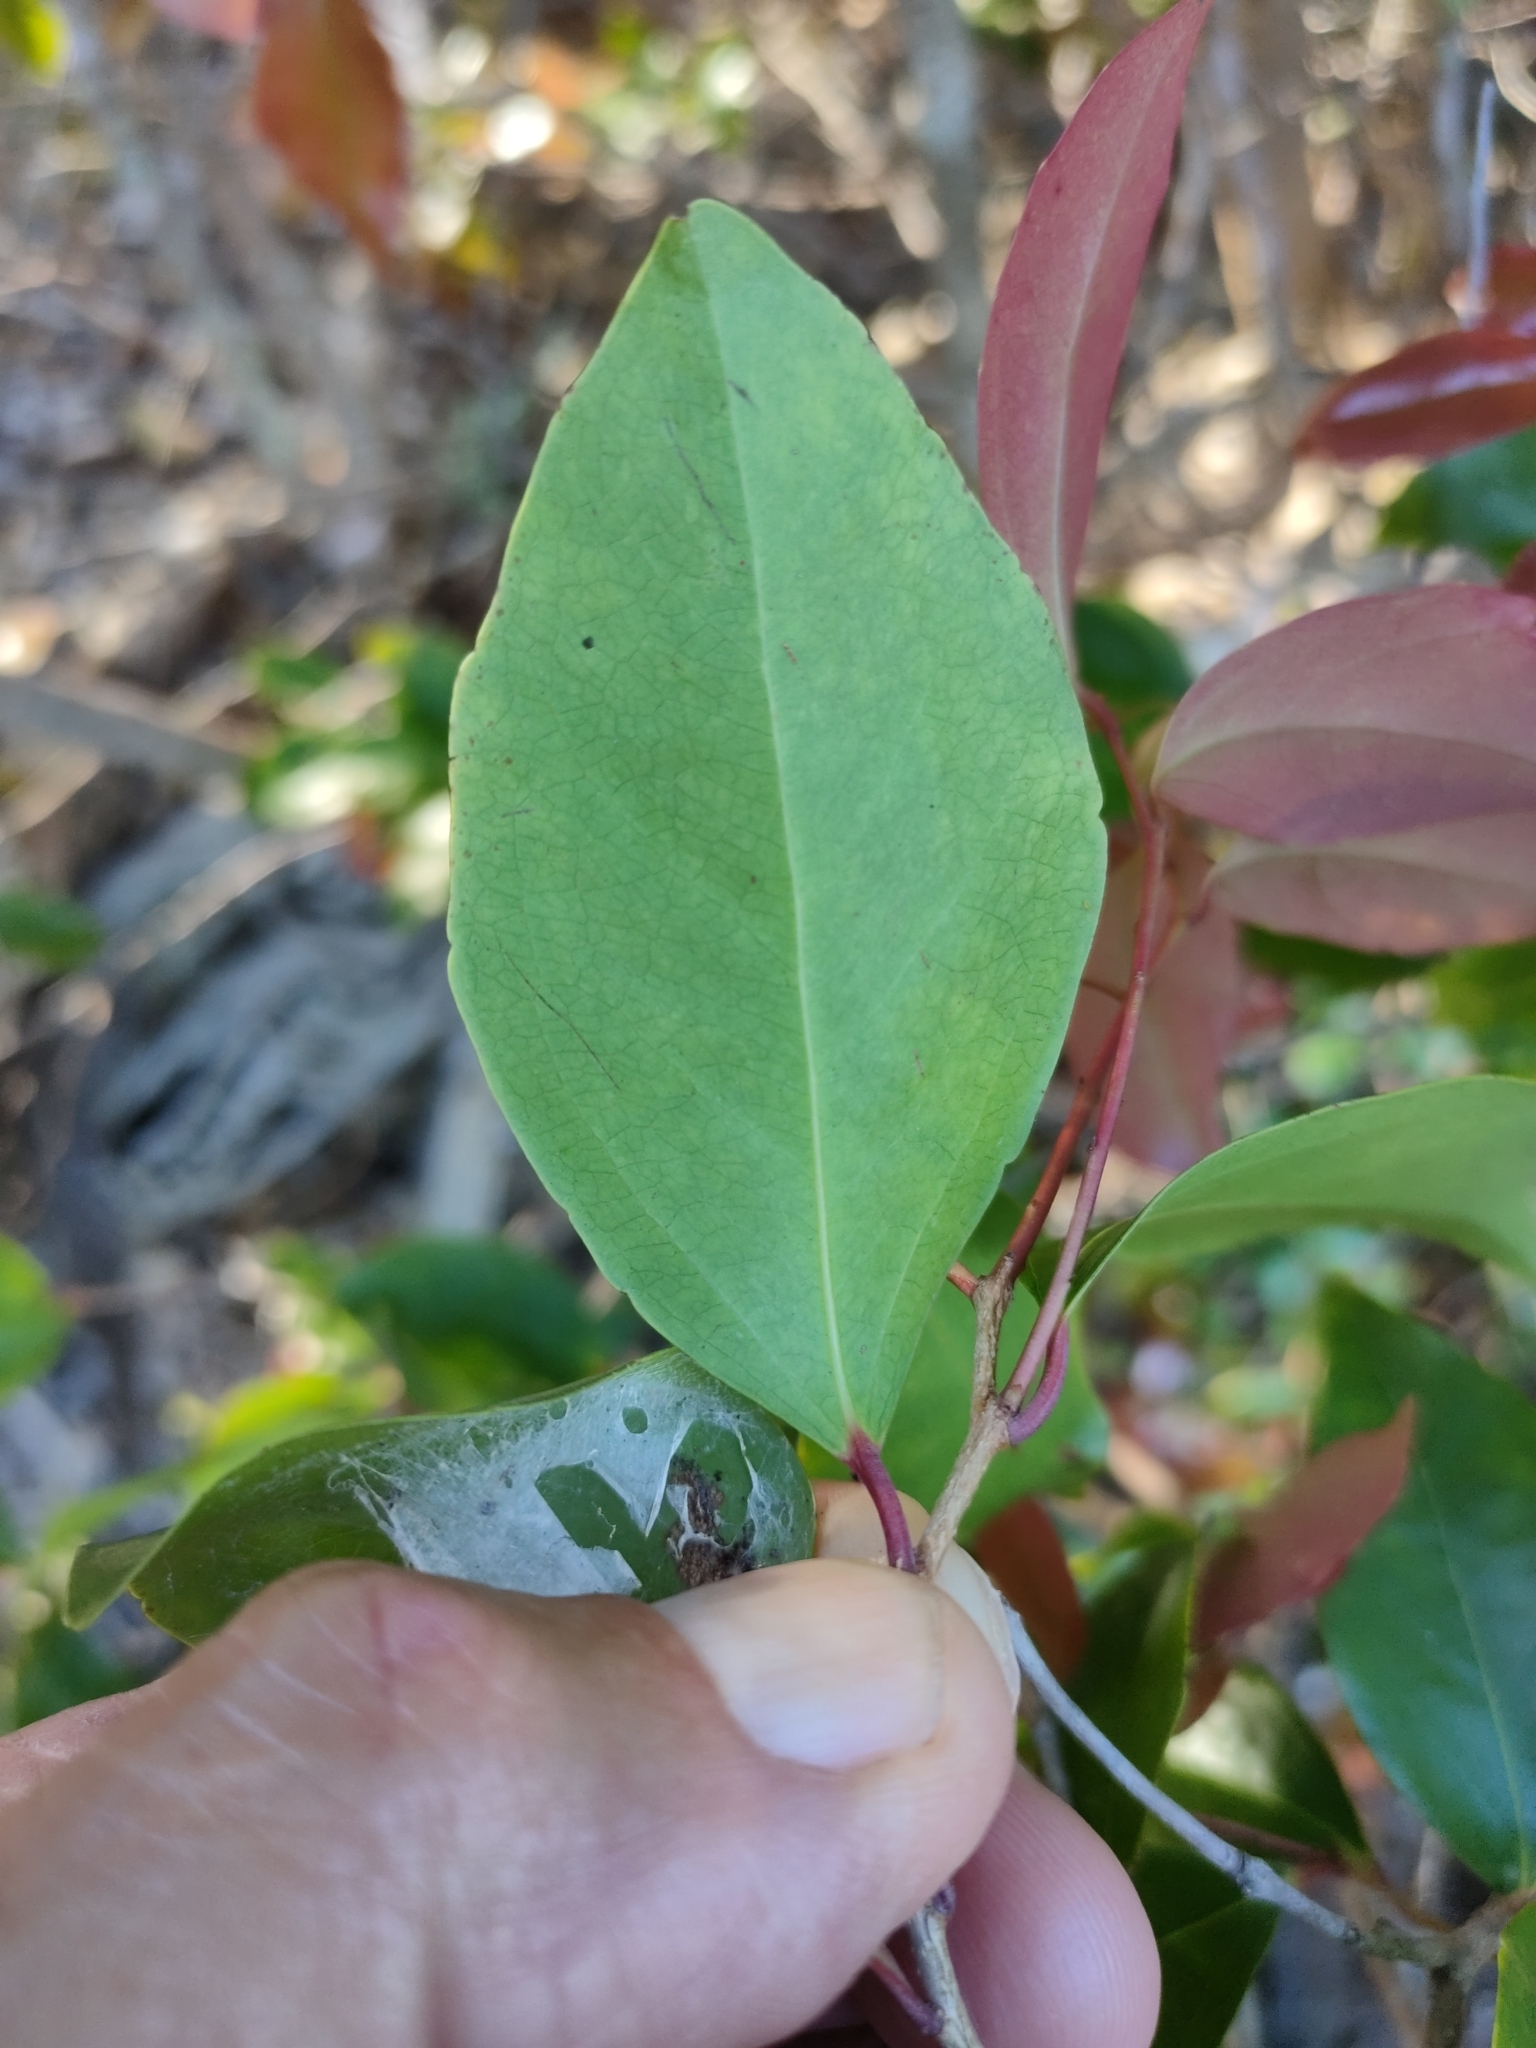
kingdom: Plantae
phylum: Tracheophyta
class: Magnoliopsida
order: Malpighiales
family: Salicaceae
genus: Scolopia
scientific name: Scolopia braunii
